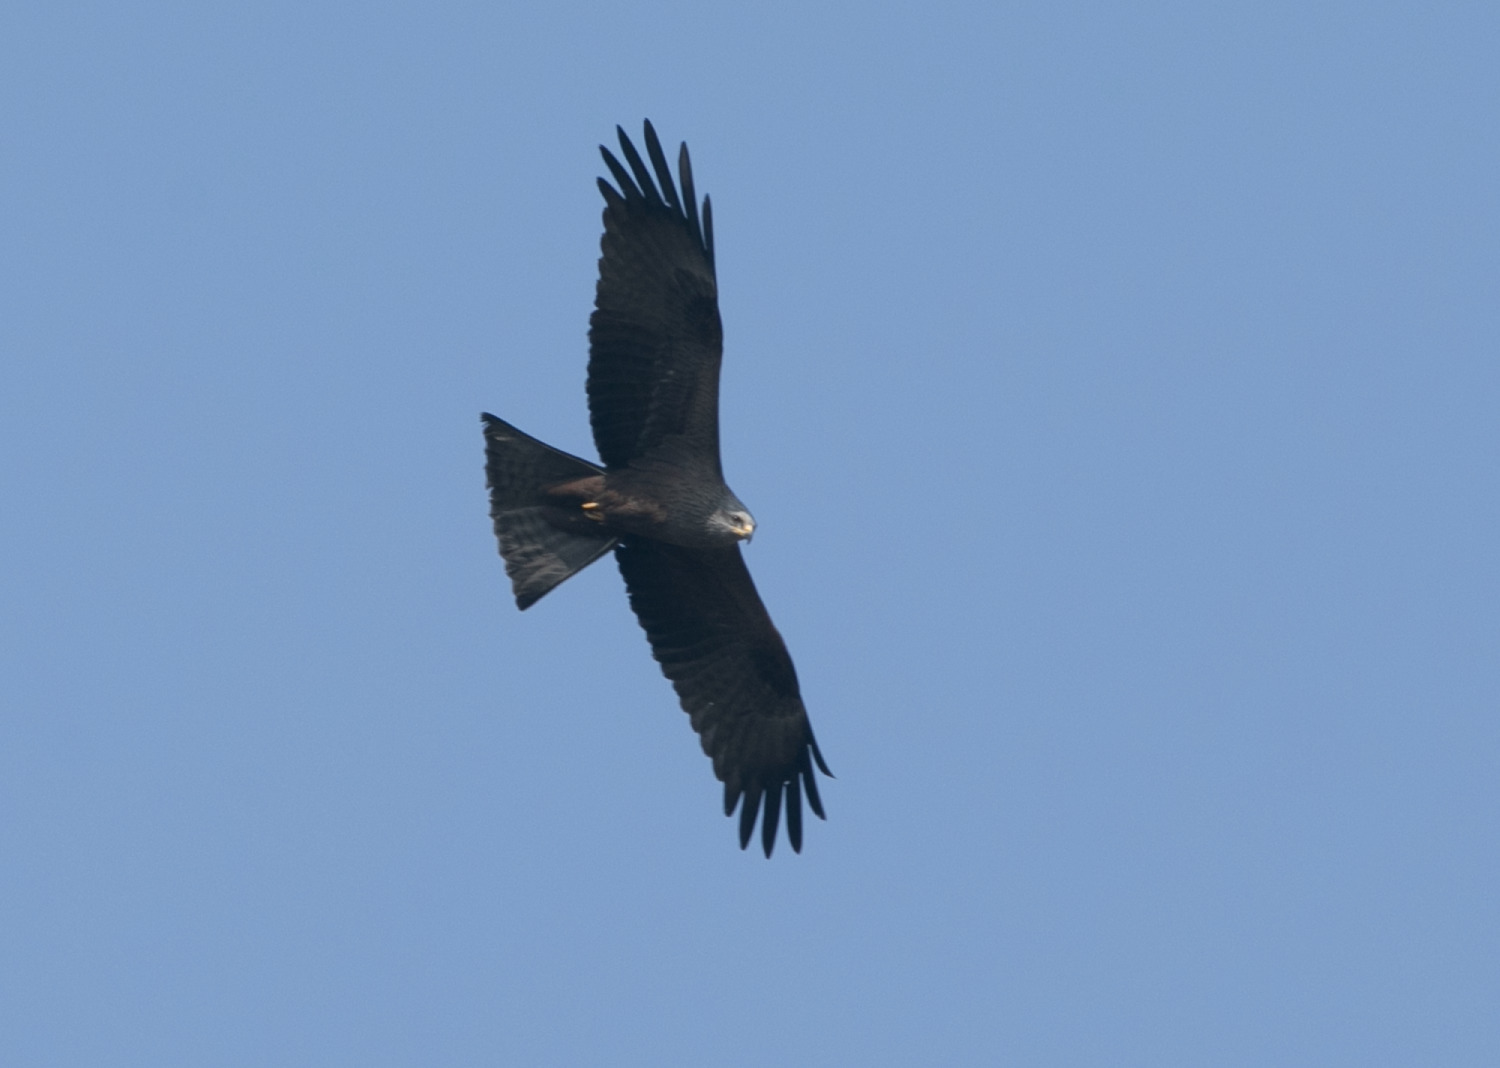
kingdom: Animalia
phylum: Chordata
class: Aves
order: Accipitriformes
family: Accipitridae
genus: Milvus
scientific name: Milvus migrans
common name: Black kite
